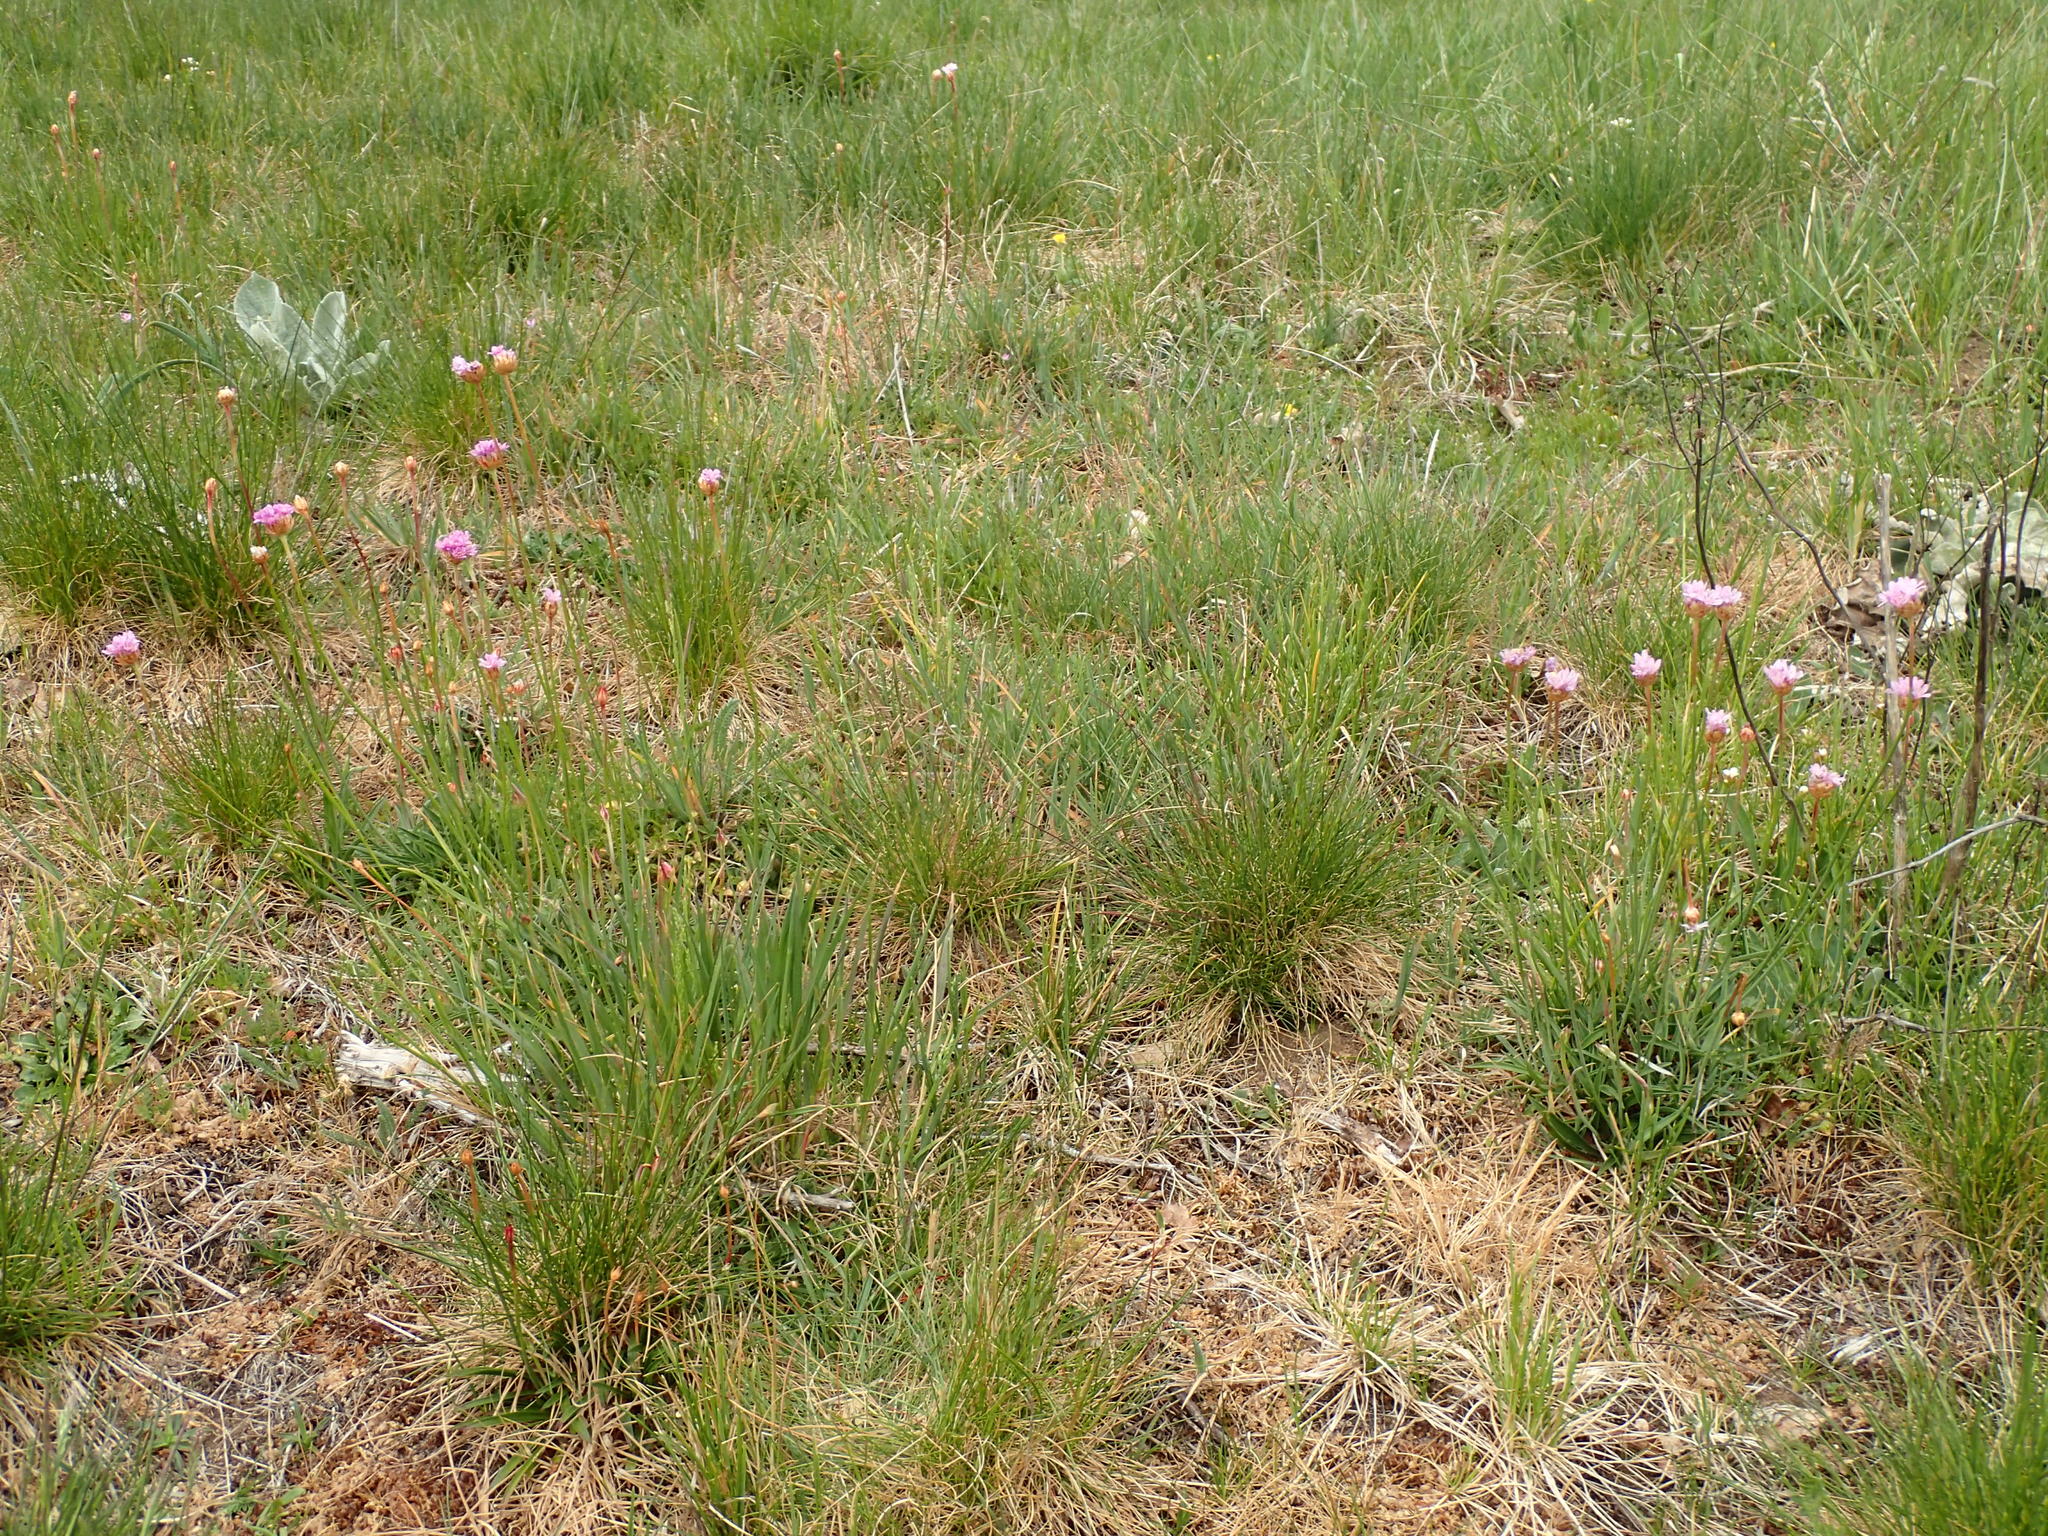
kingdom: Plantae
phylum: Tracheophyta
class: Magnoliopsida
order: Caryophyllales
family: Plumbaginaceae
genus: Armeria
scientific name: Armeria arenaria
